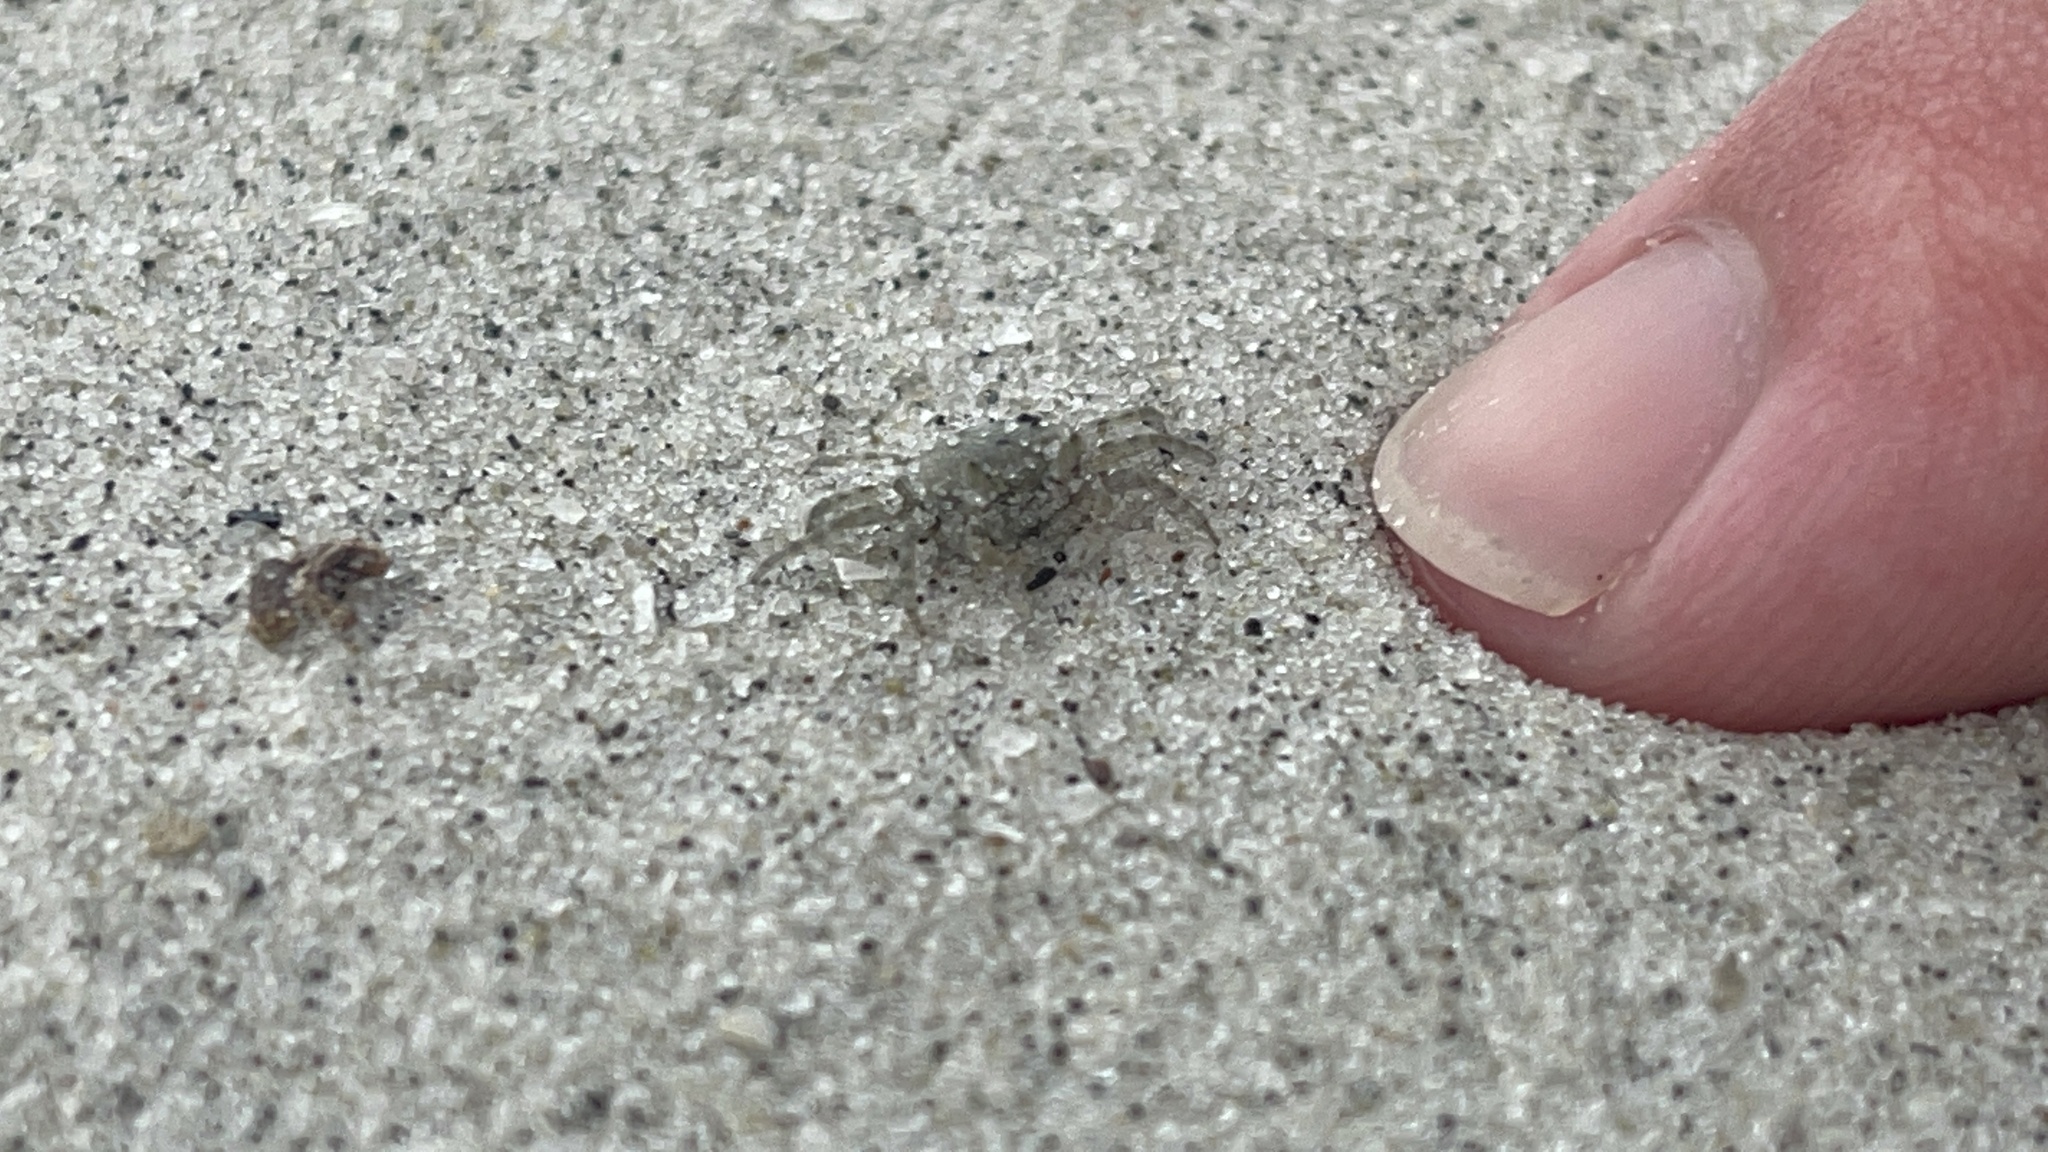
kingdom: Animalia
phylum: Arthropoda
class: Malacostraca
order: Decapoda
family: Ocypodidae
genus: Ocypode
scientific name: Ocypode quadrata
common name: Ghost crab
